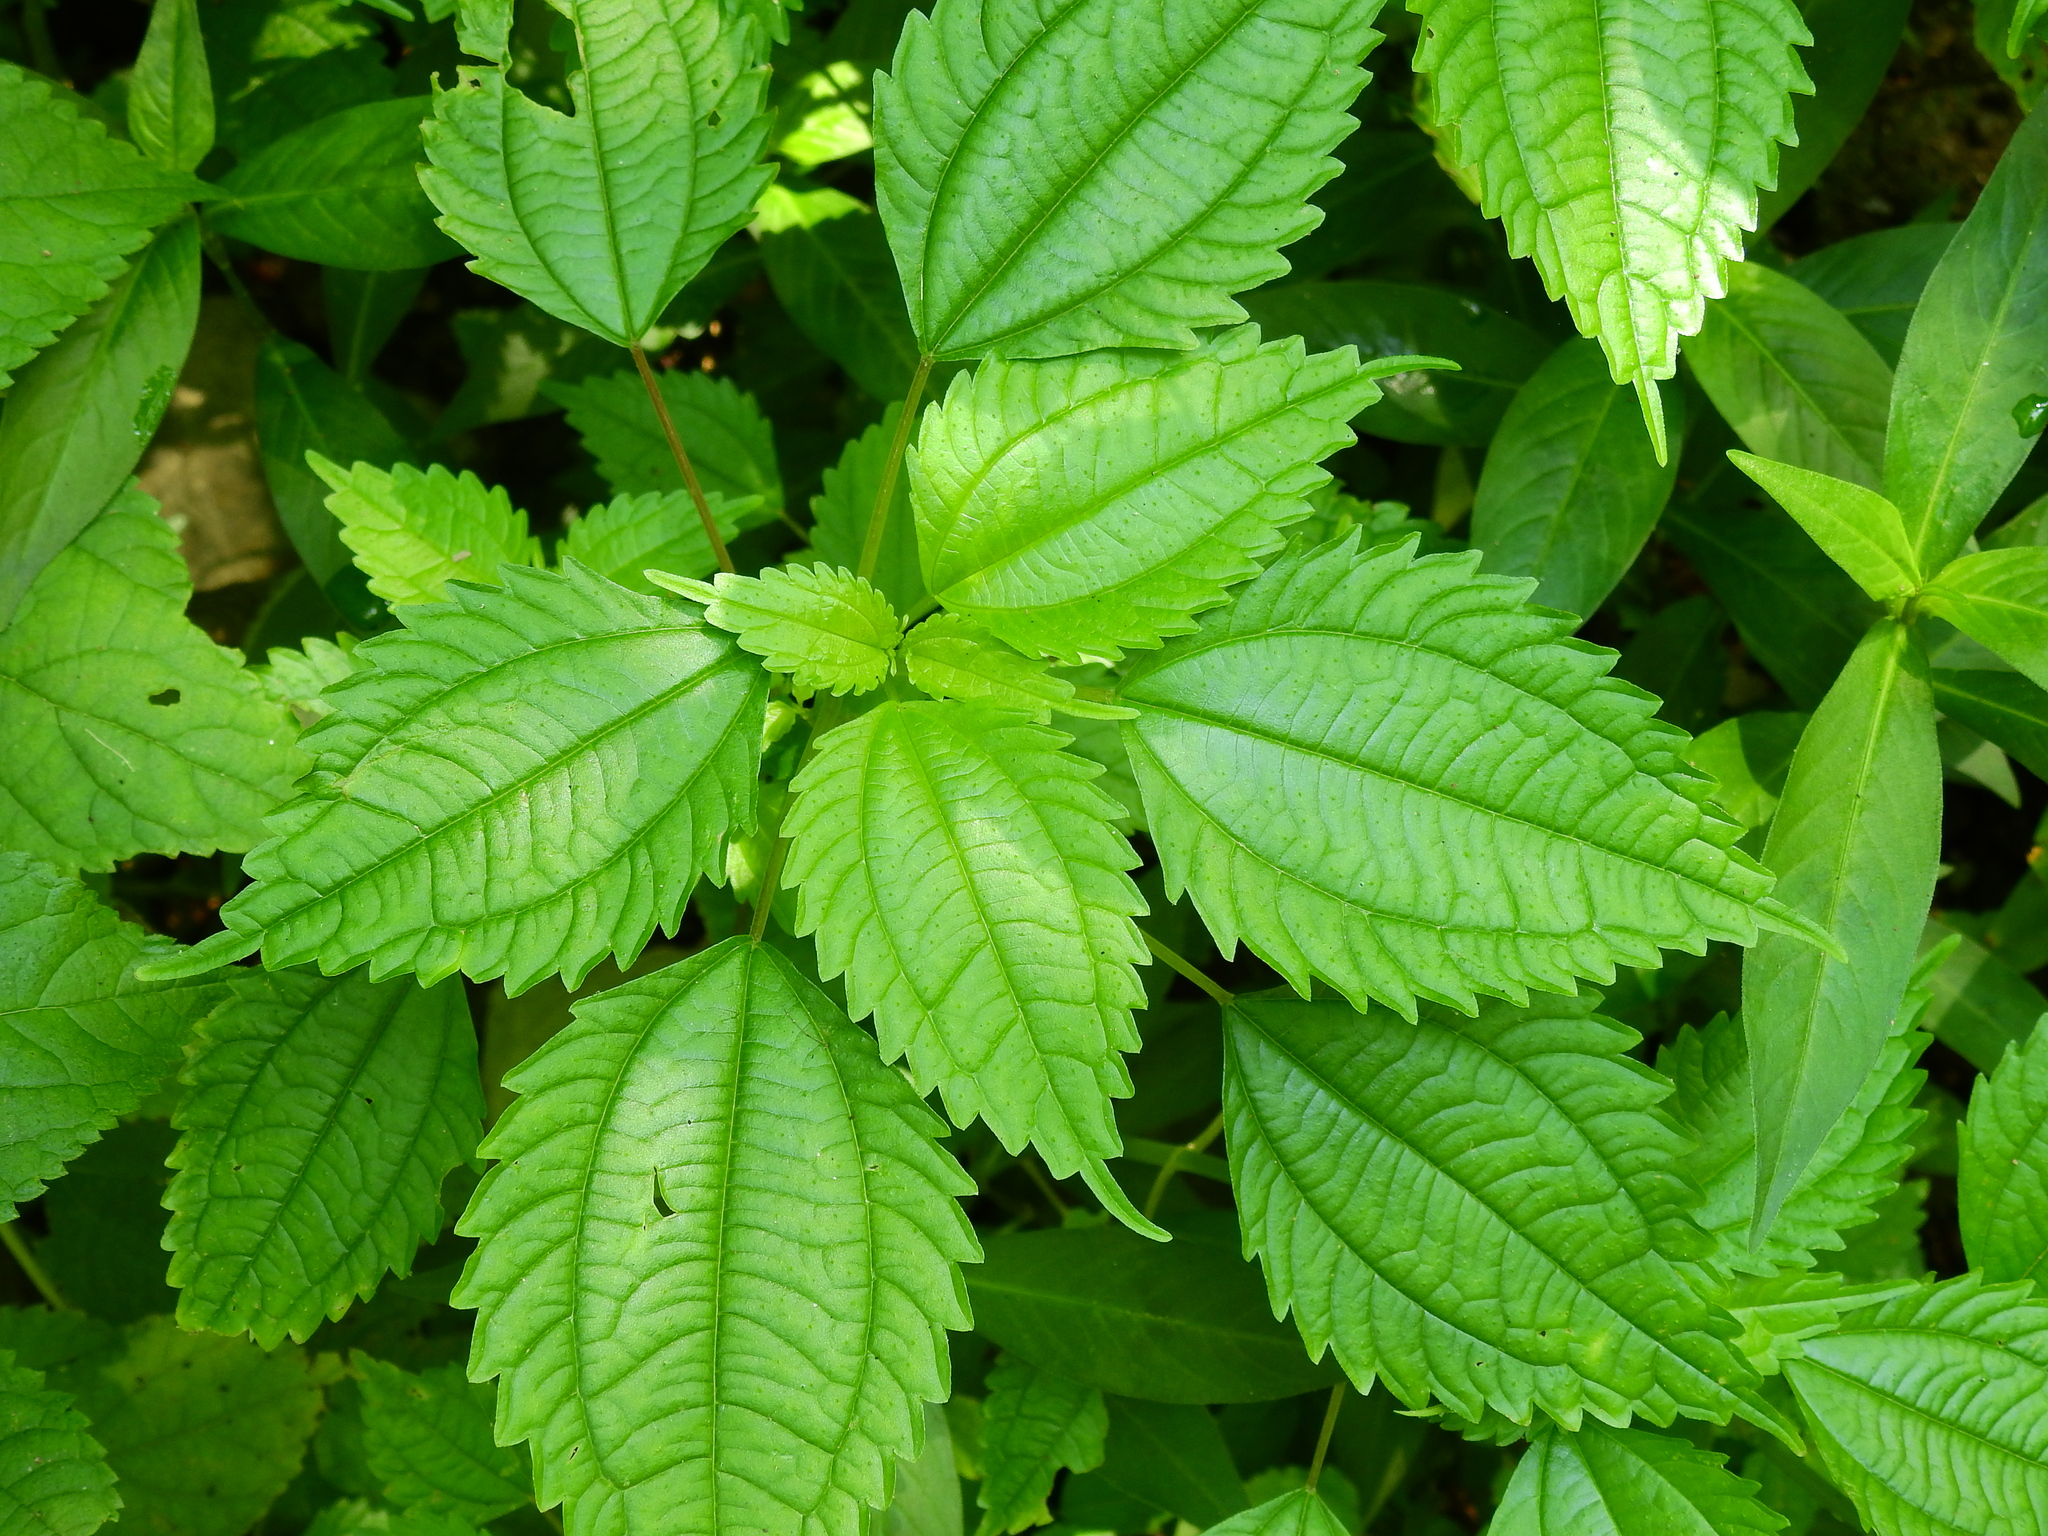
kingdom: Plantae
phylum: Tracheophyta
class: Magnoliopsida
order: Rosales
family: Urticaceae
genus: Pilea
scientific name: Pilea pumila
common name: Clearweed
